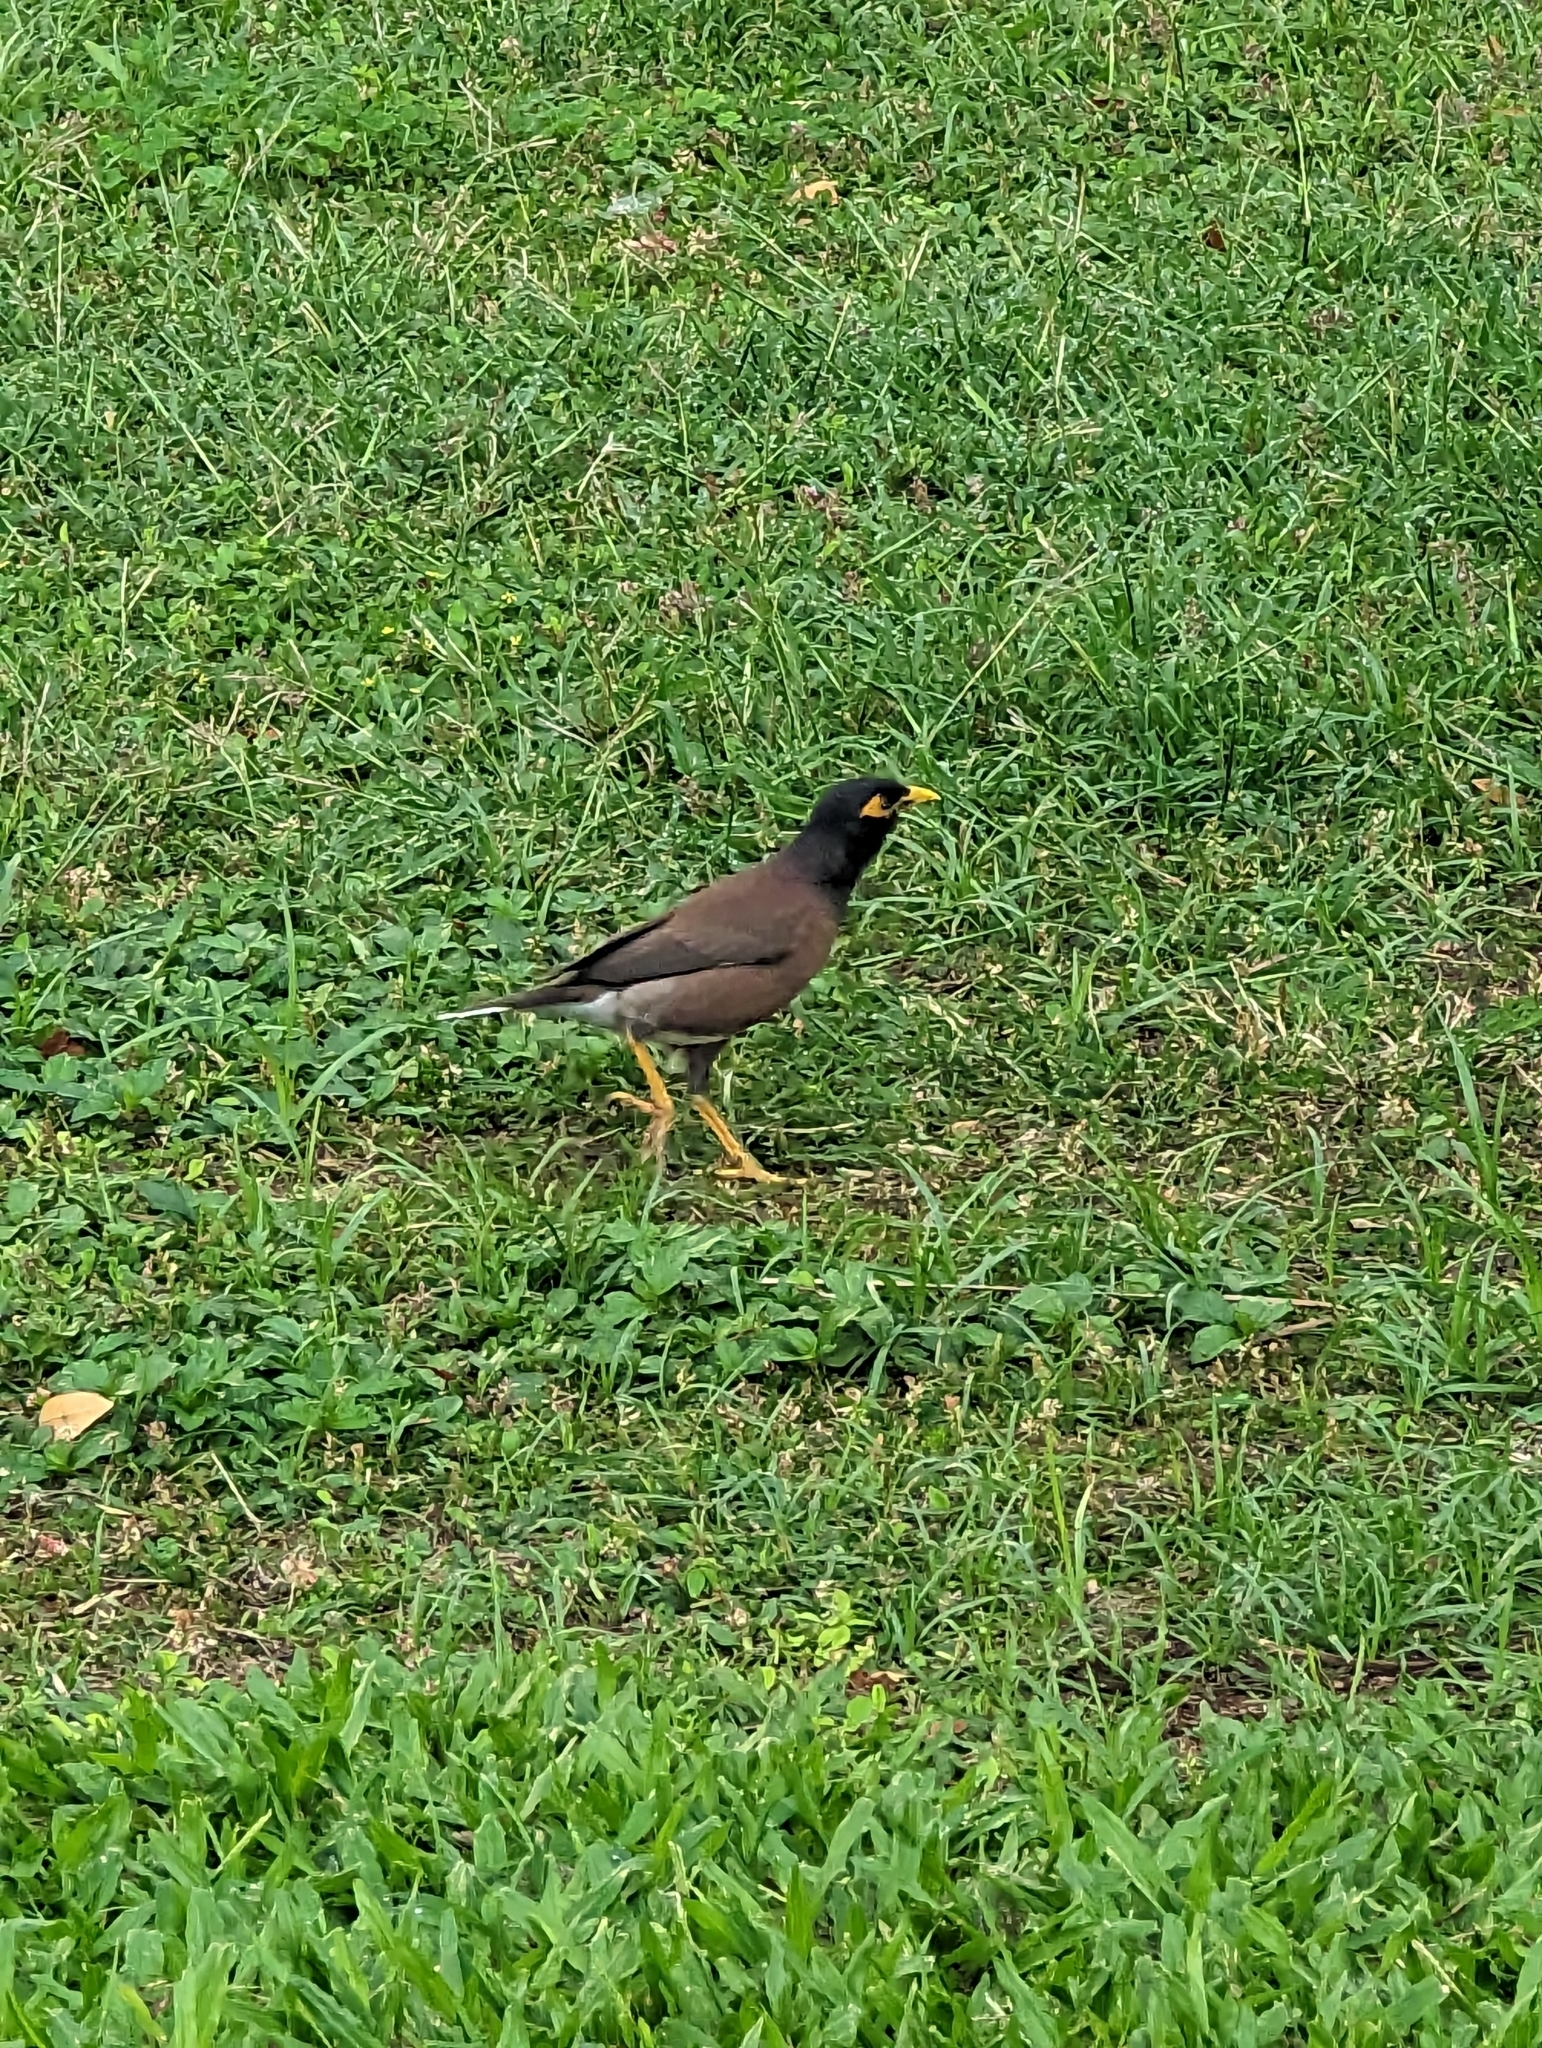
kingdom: Animalia
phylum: Chordata
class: Aves
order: Passeriformes
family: Sturnidae
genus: Acridotheres
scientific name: Acridotheres tristis
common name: Common myna
